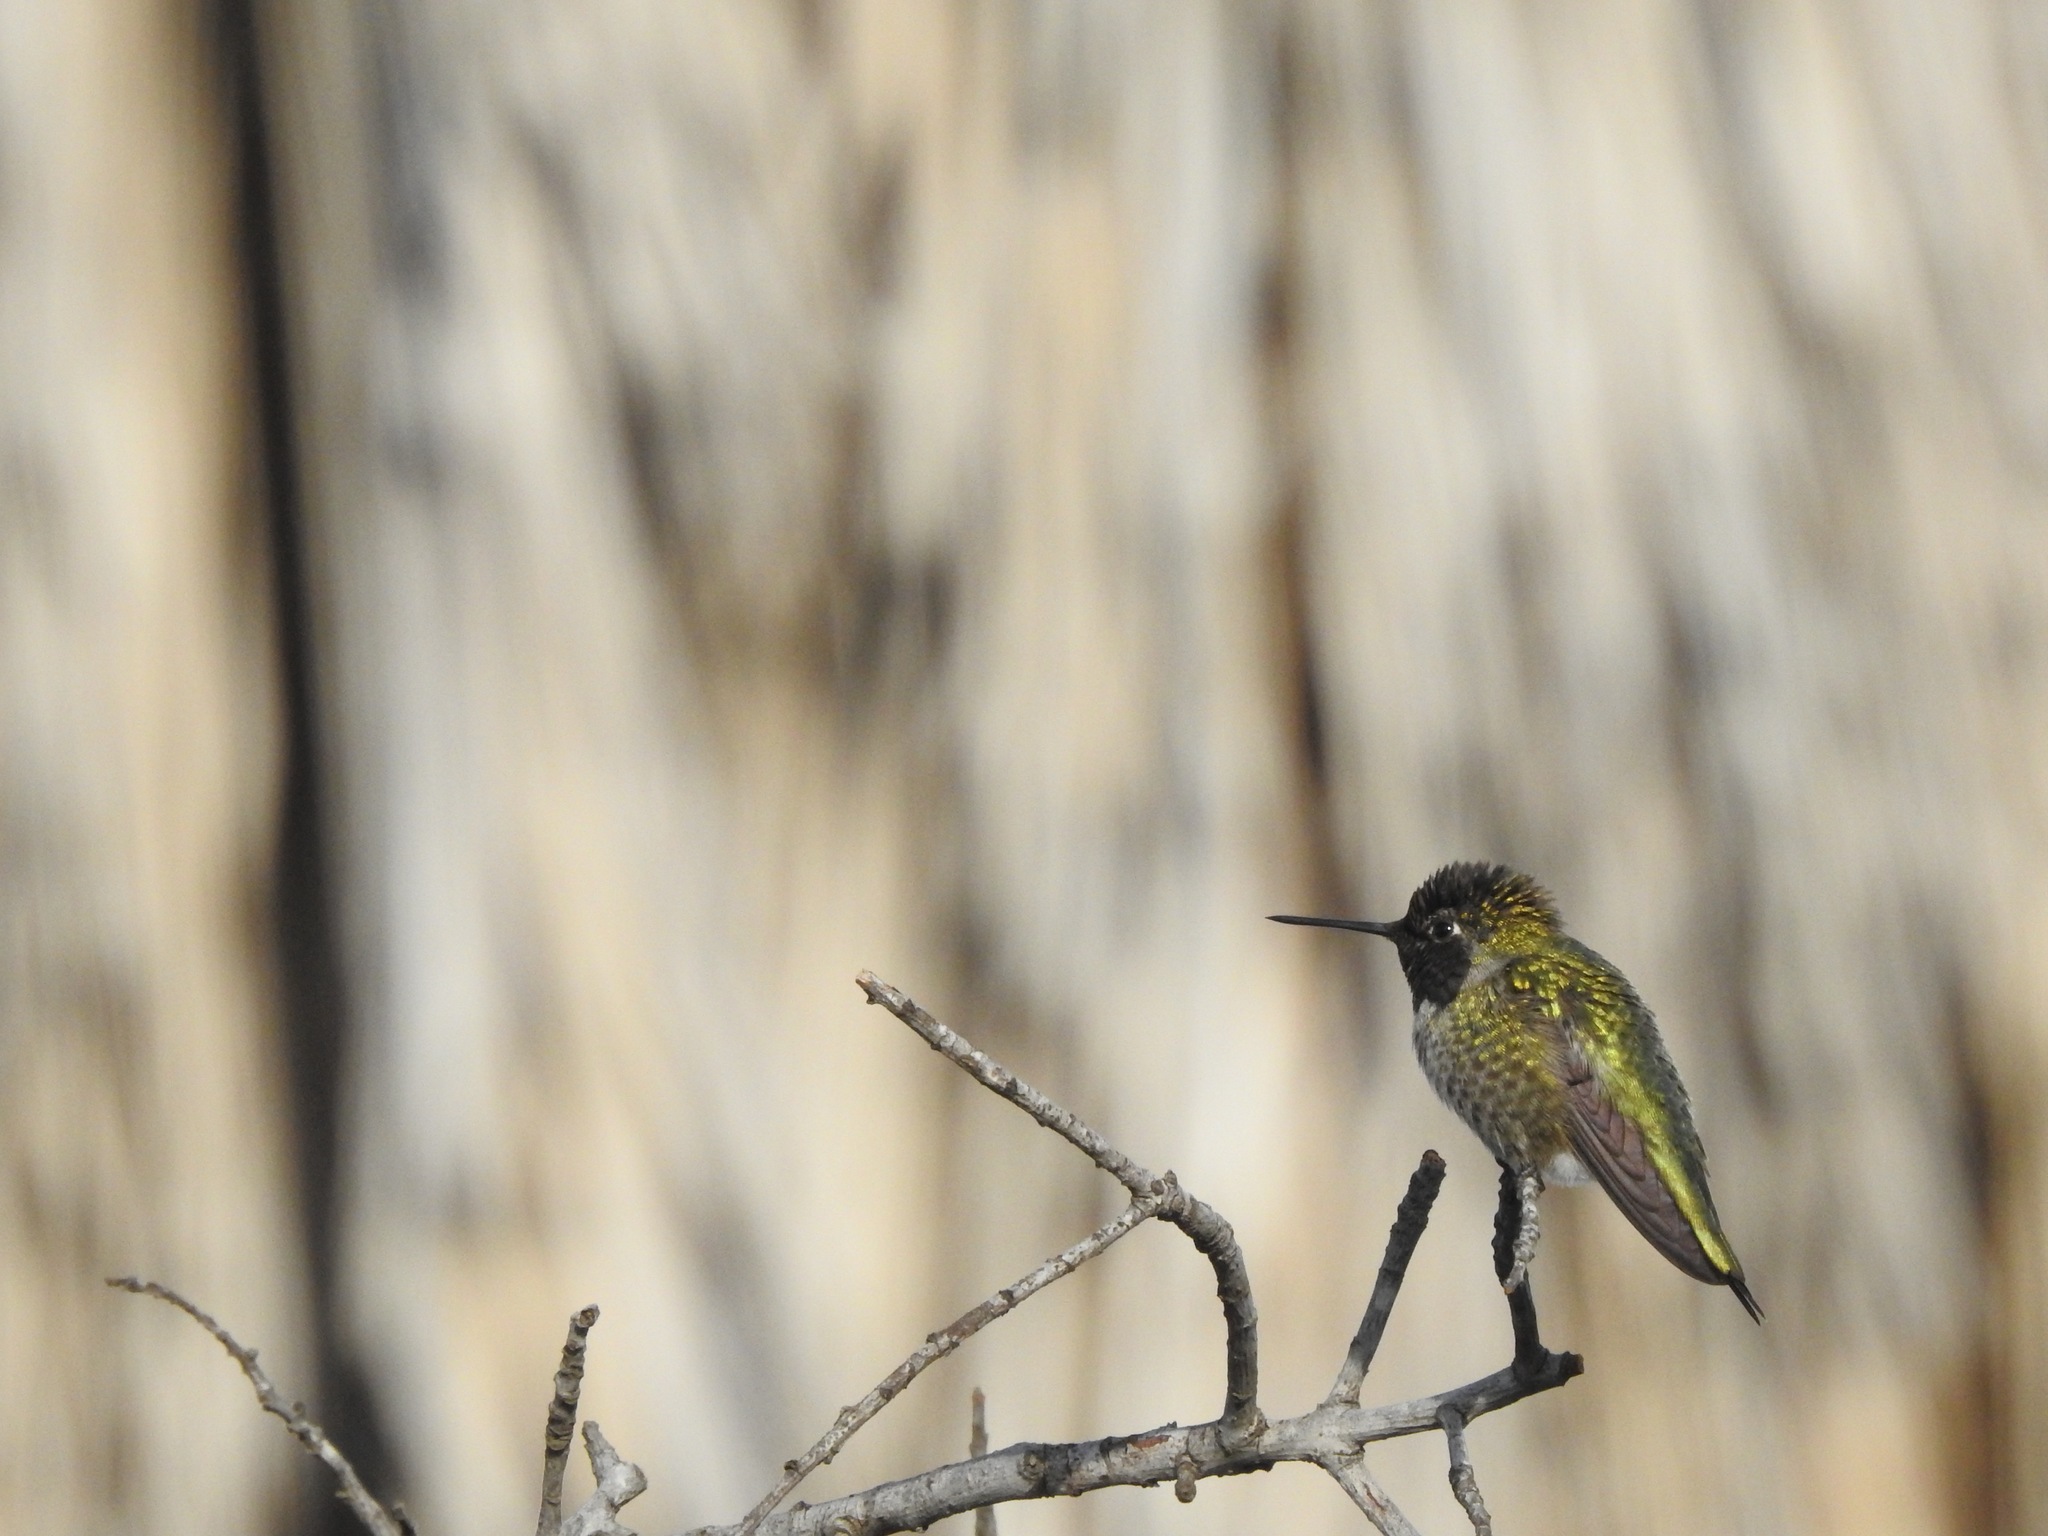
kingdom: Animalia
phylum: Chordata
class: Aves
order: Apodiformes
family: Trochilidae
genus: Calypte
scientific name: Calypte anna
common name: Anna's hummingbird
